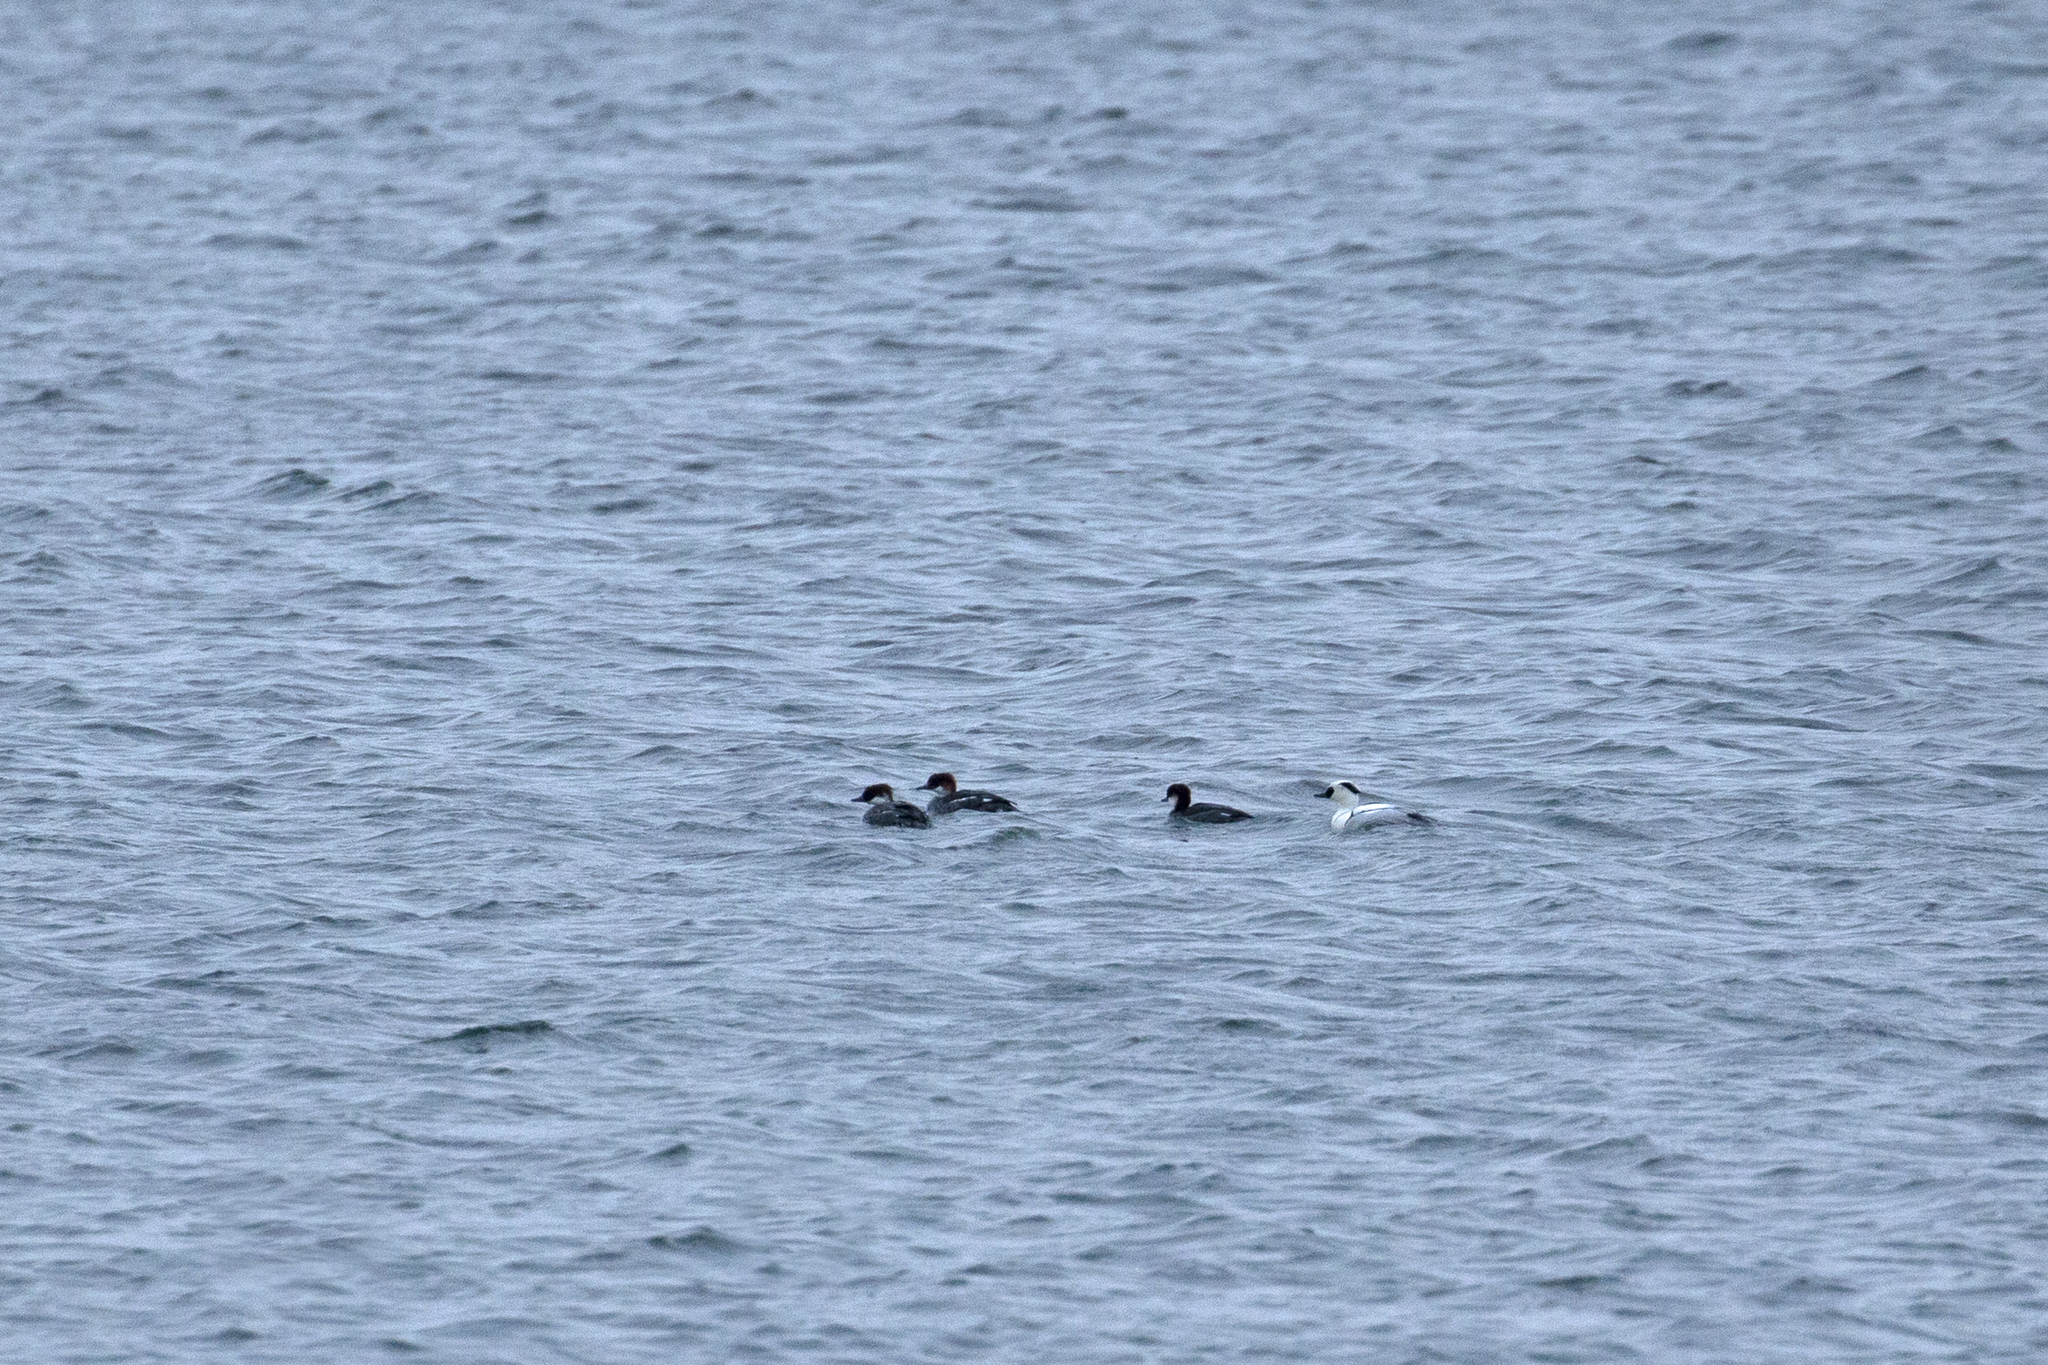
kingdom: Animalia
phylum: Chordata
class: Aves
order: Anseriformes
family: Anatidae
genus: Mergellus
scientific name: Mergellus albellus
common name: Smew
